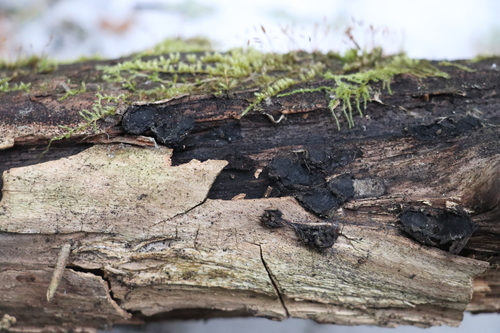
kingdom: Fungi
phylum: Ascomycota
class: Sordariomycetes
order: Xylariales
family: Graphostromataceae
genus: Biscogniauxia
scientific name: Biscogniauxia repanda
